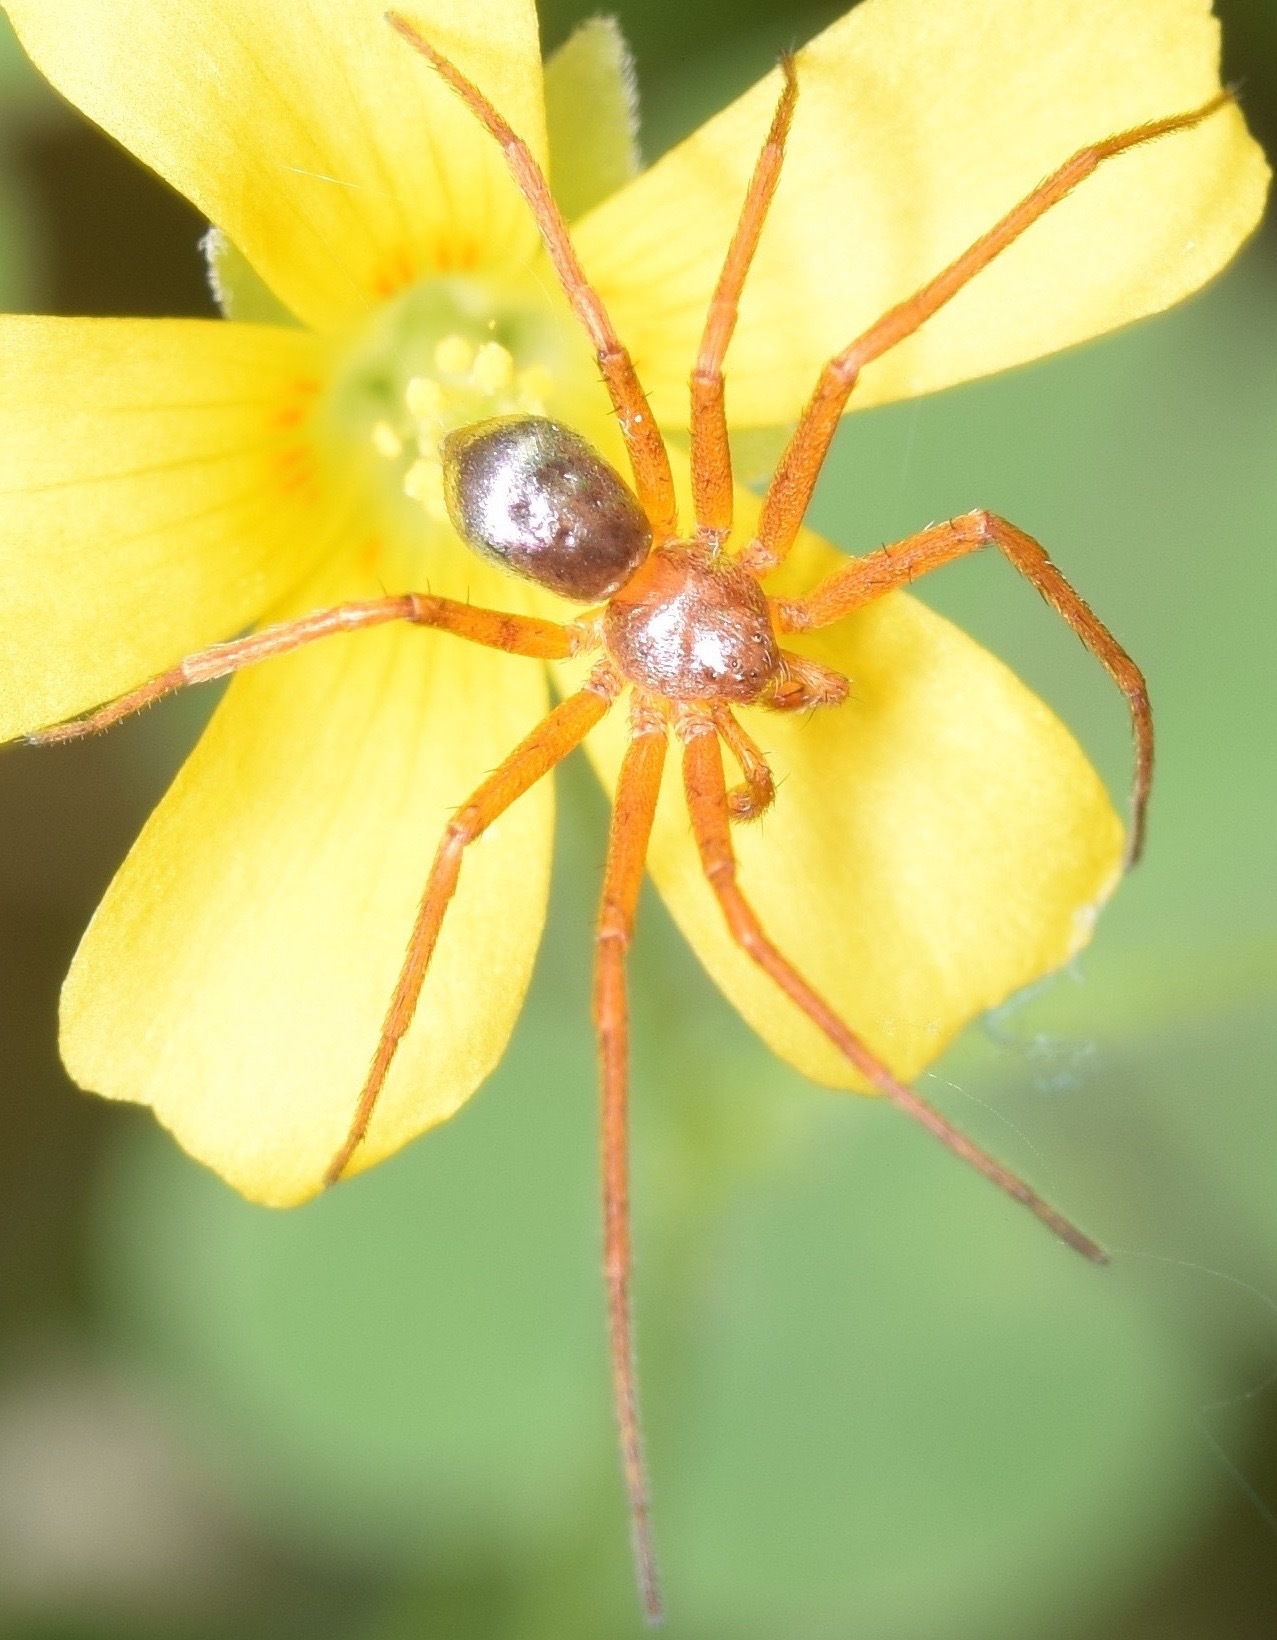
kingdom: Animalia
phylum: Arthropoda
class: Arachnida
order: Araneae
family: Philodromidae
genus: Philodromus
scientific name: Philodromus marxi
